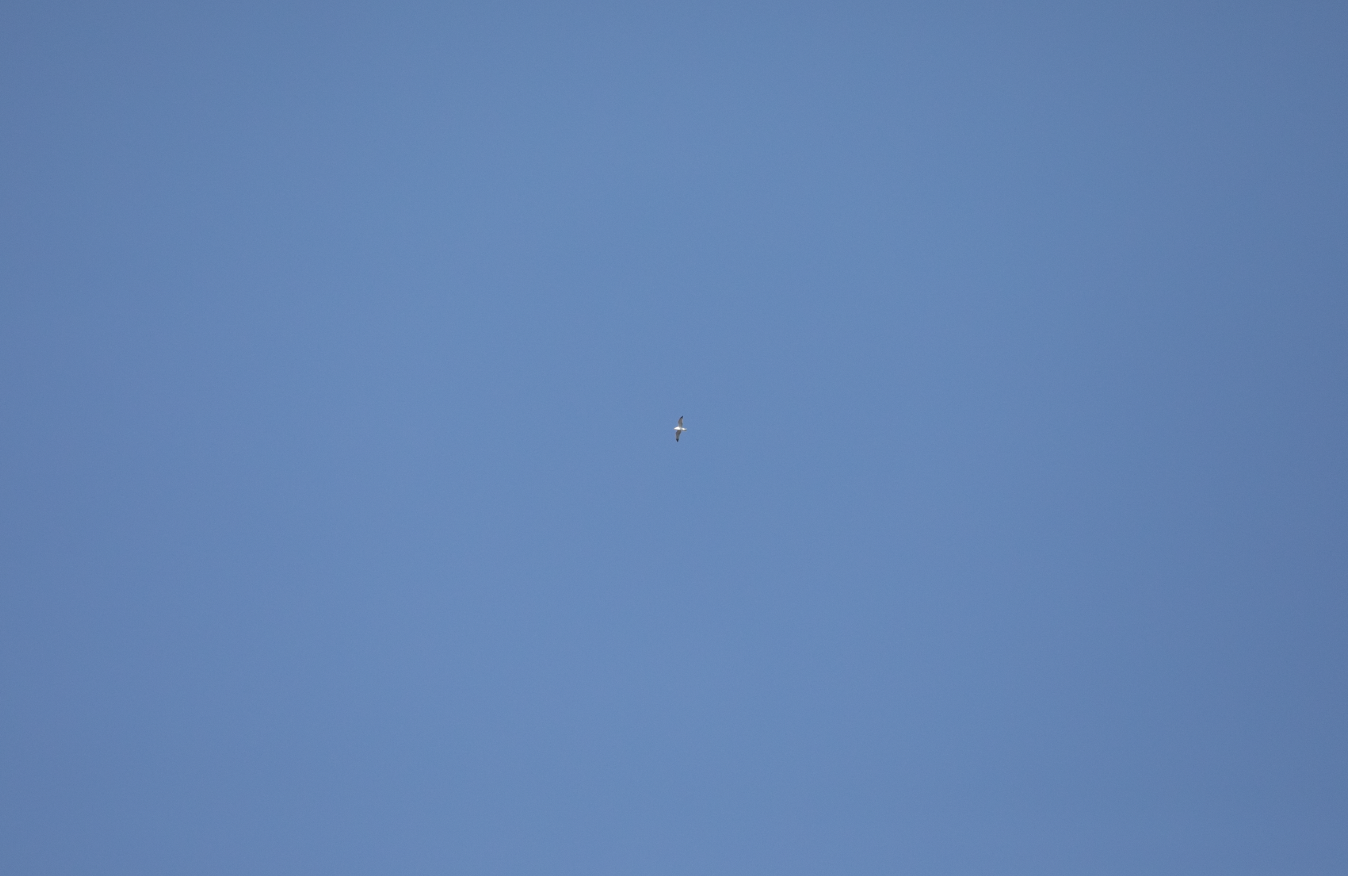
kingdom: Animalia
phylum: Chordata
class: Aves
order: Charadriiformes
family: Laridae
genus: Larus
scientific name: Larus michahellis
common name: Yellow-legged gull
